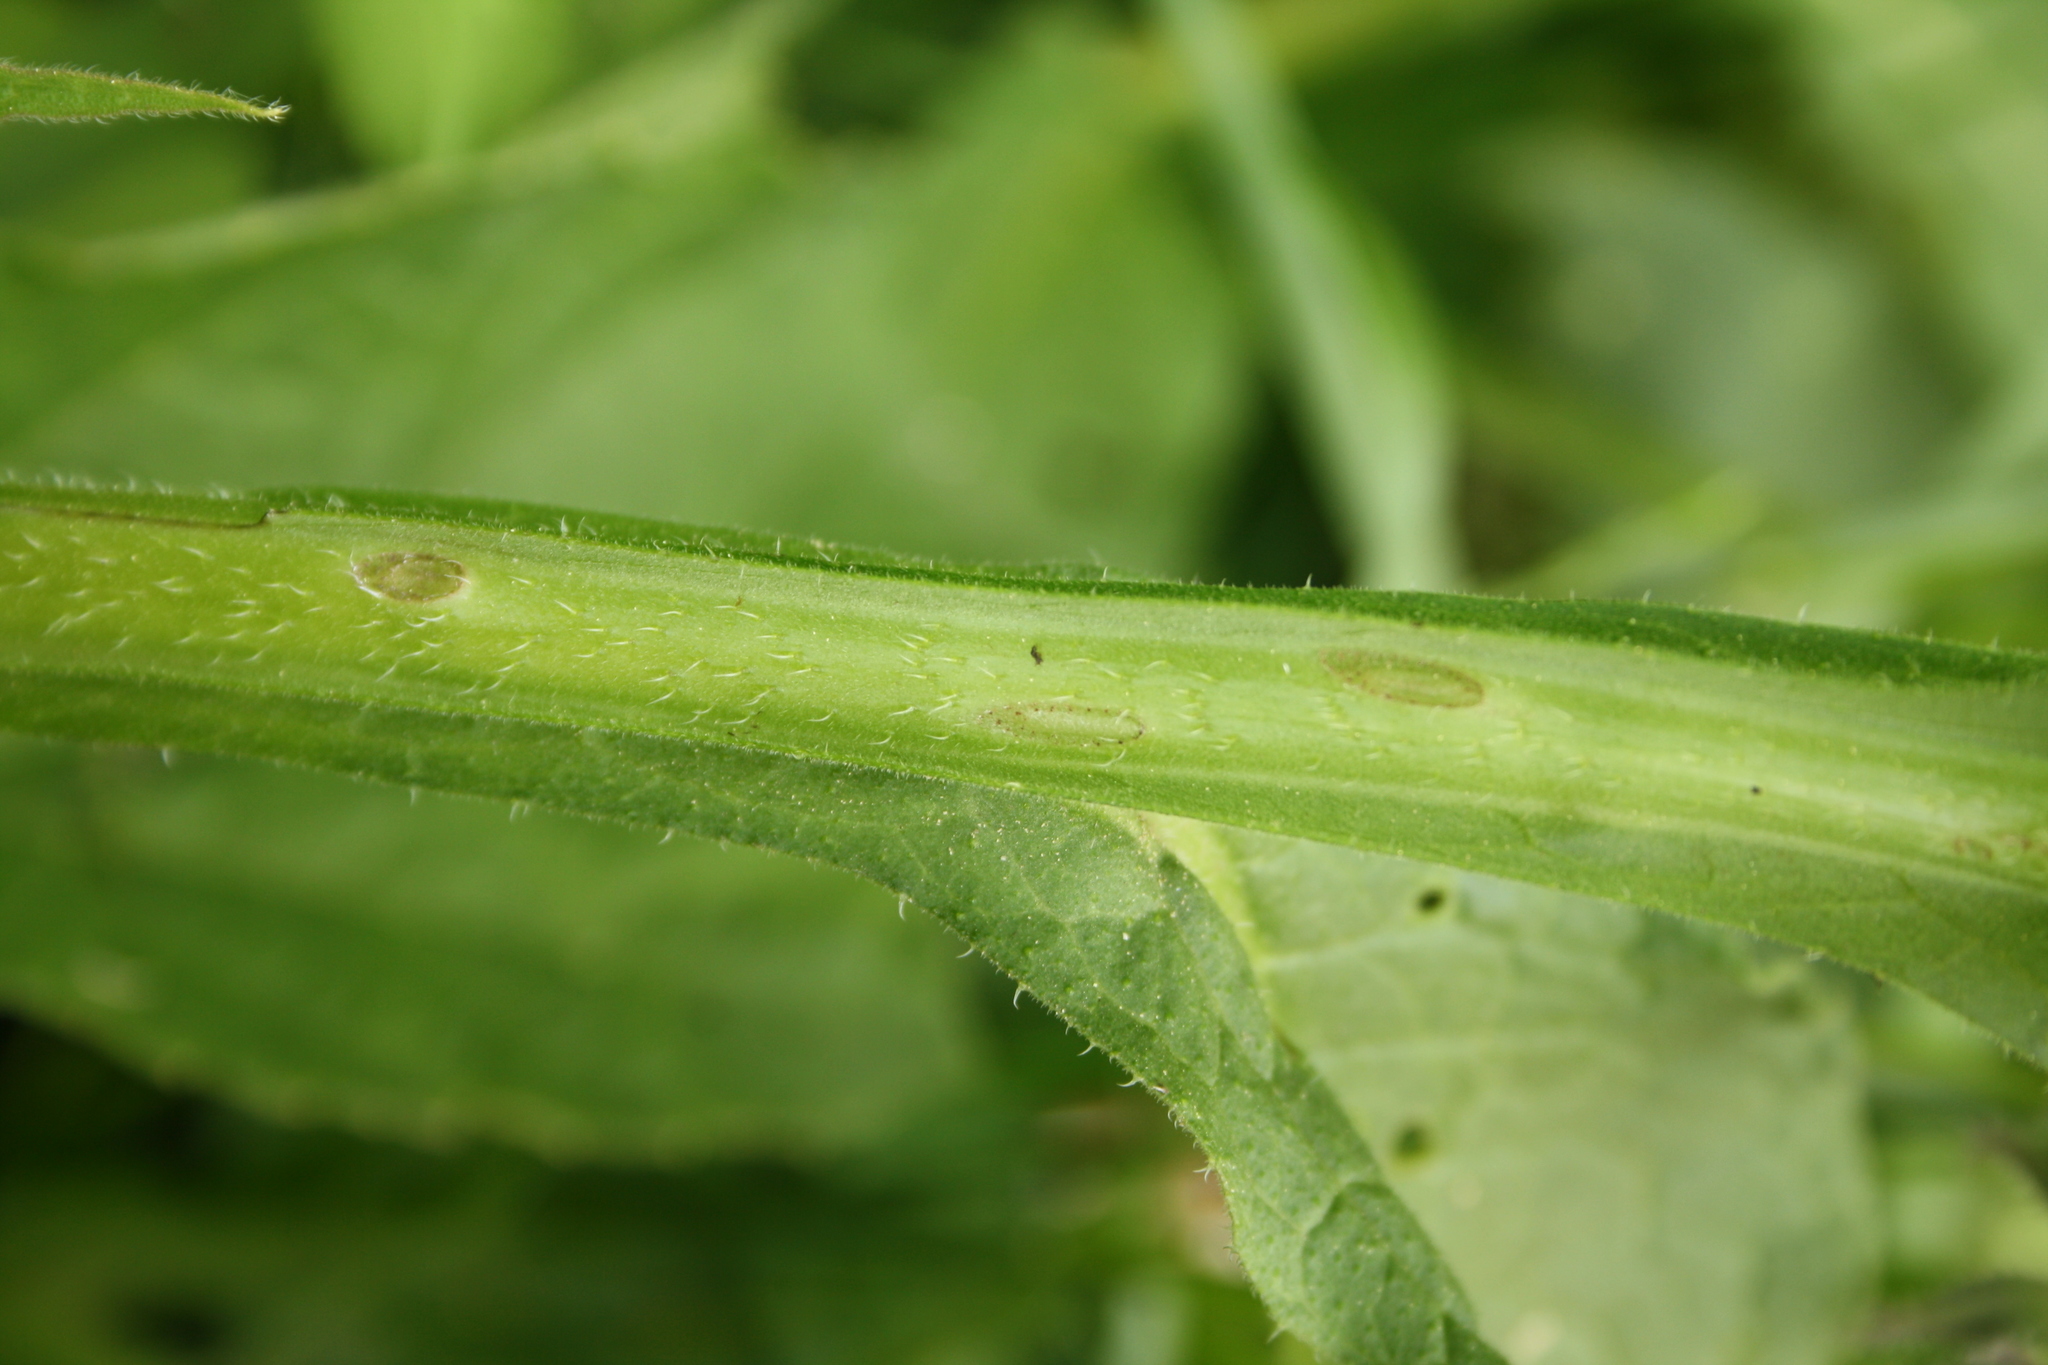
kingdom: Plantae
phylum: Tracheophyta
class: Magnoliopsida
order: Boraginales
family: Boraginaceae
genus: Symphytum
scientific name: Symphytum officinale
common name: Common comfrey
